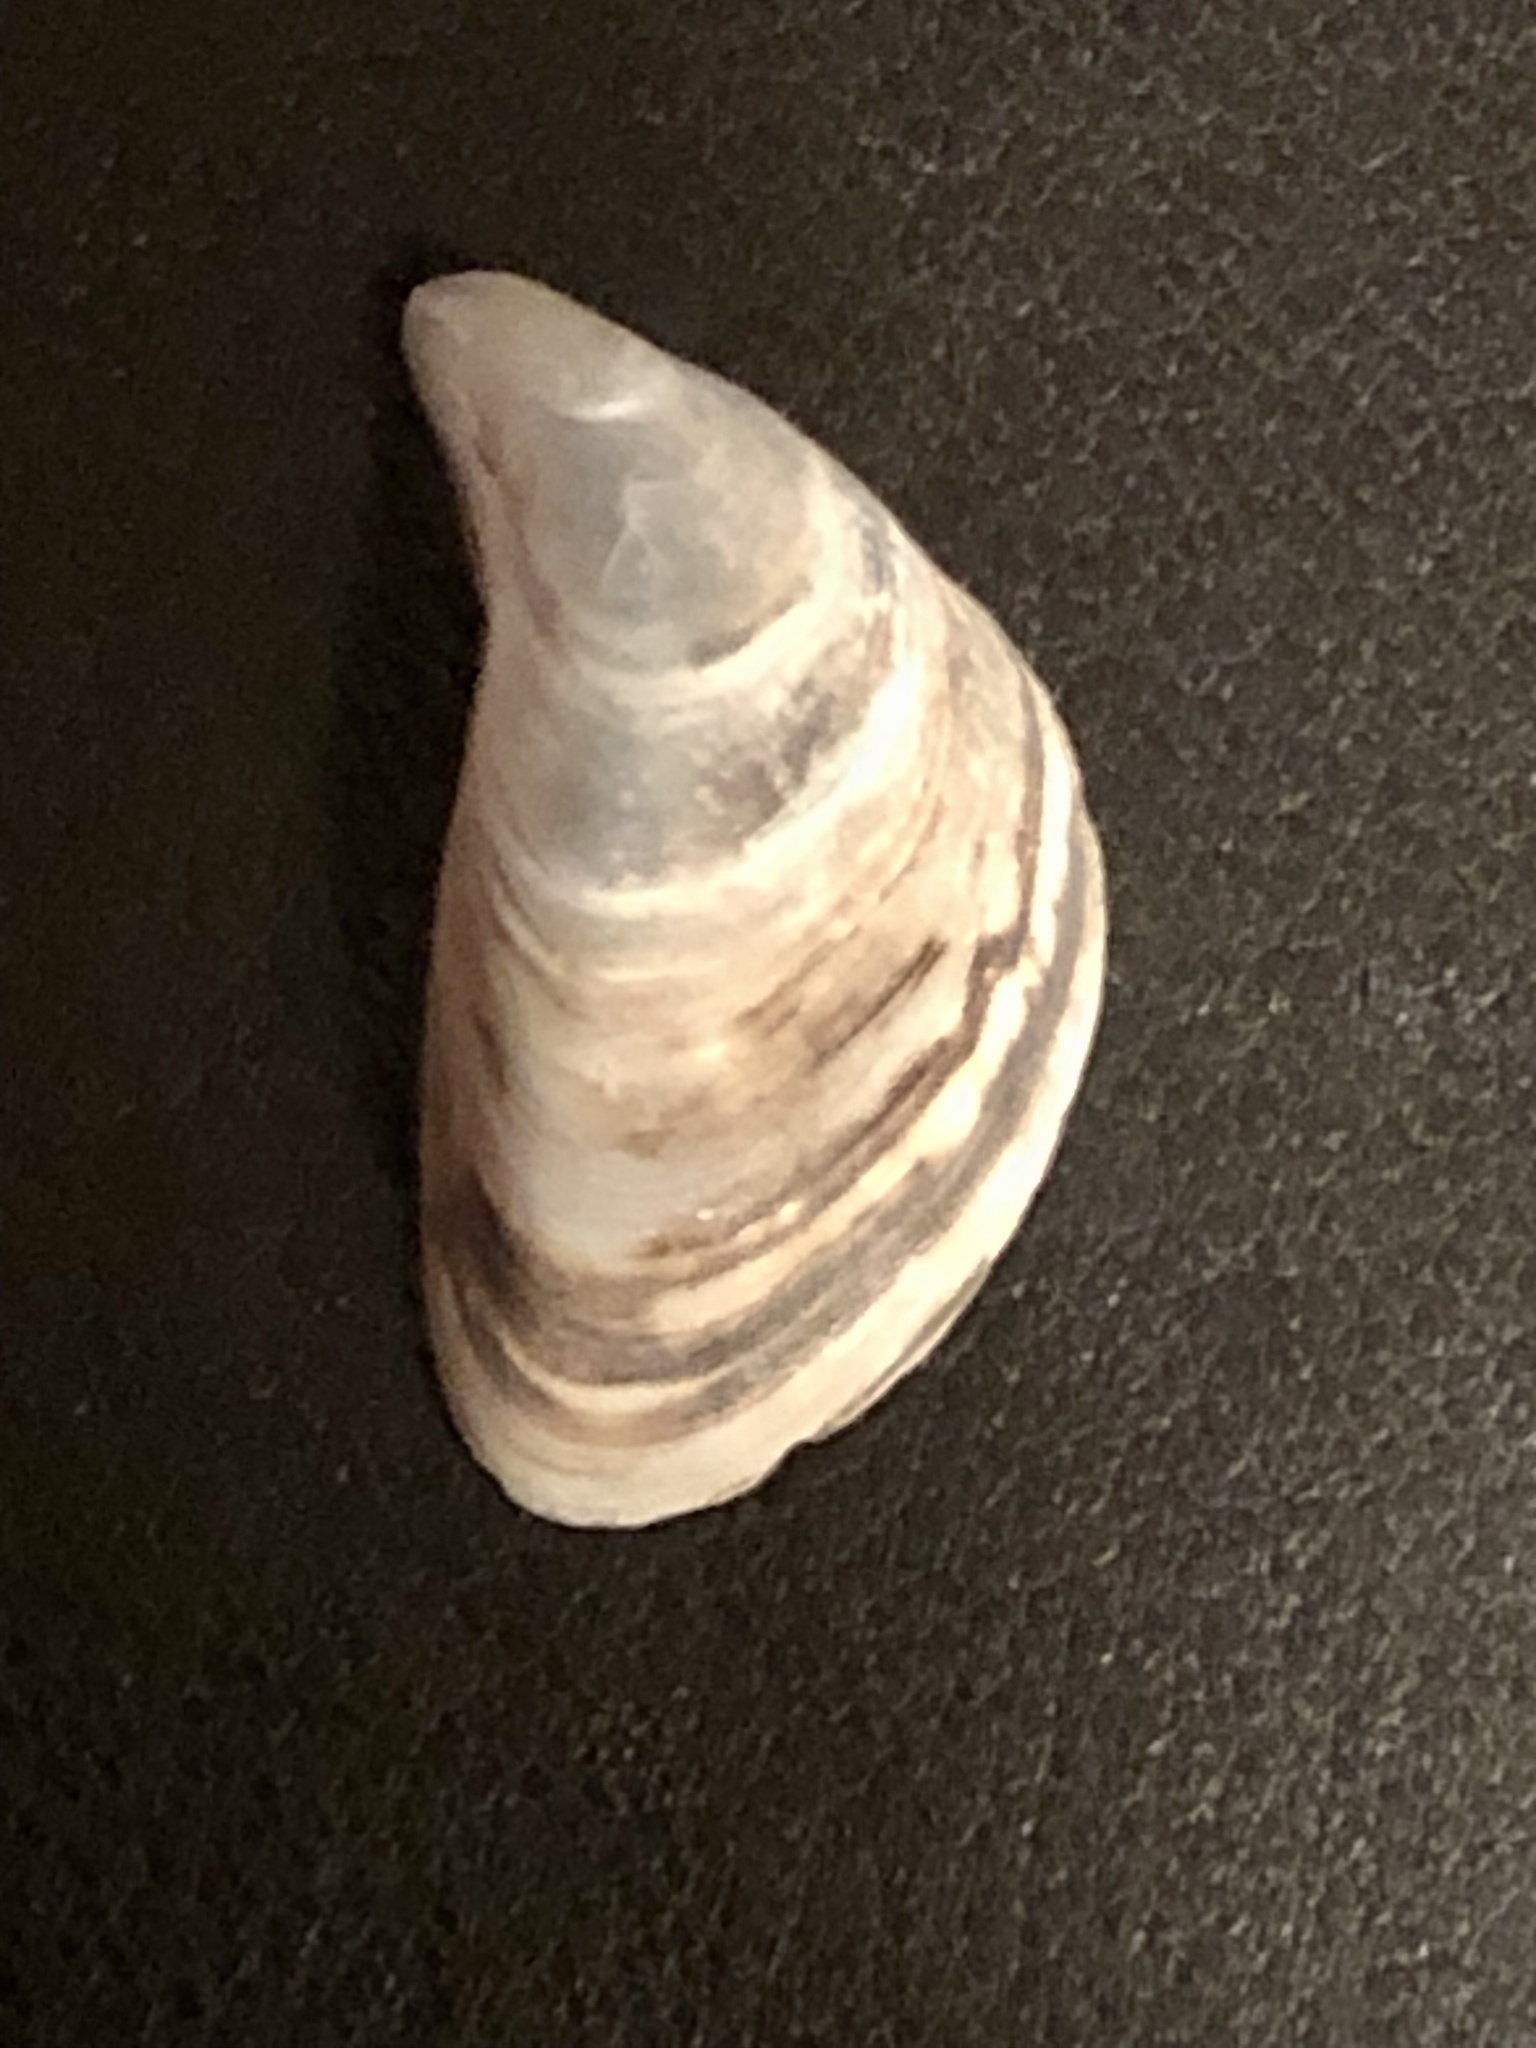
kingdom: Animalia
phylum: Mollusca
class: Bivalvia
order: Myida
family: Dreissenidae
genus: Dreissena
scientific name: Dreissena bugensis
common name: Quagga mussel
